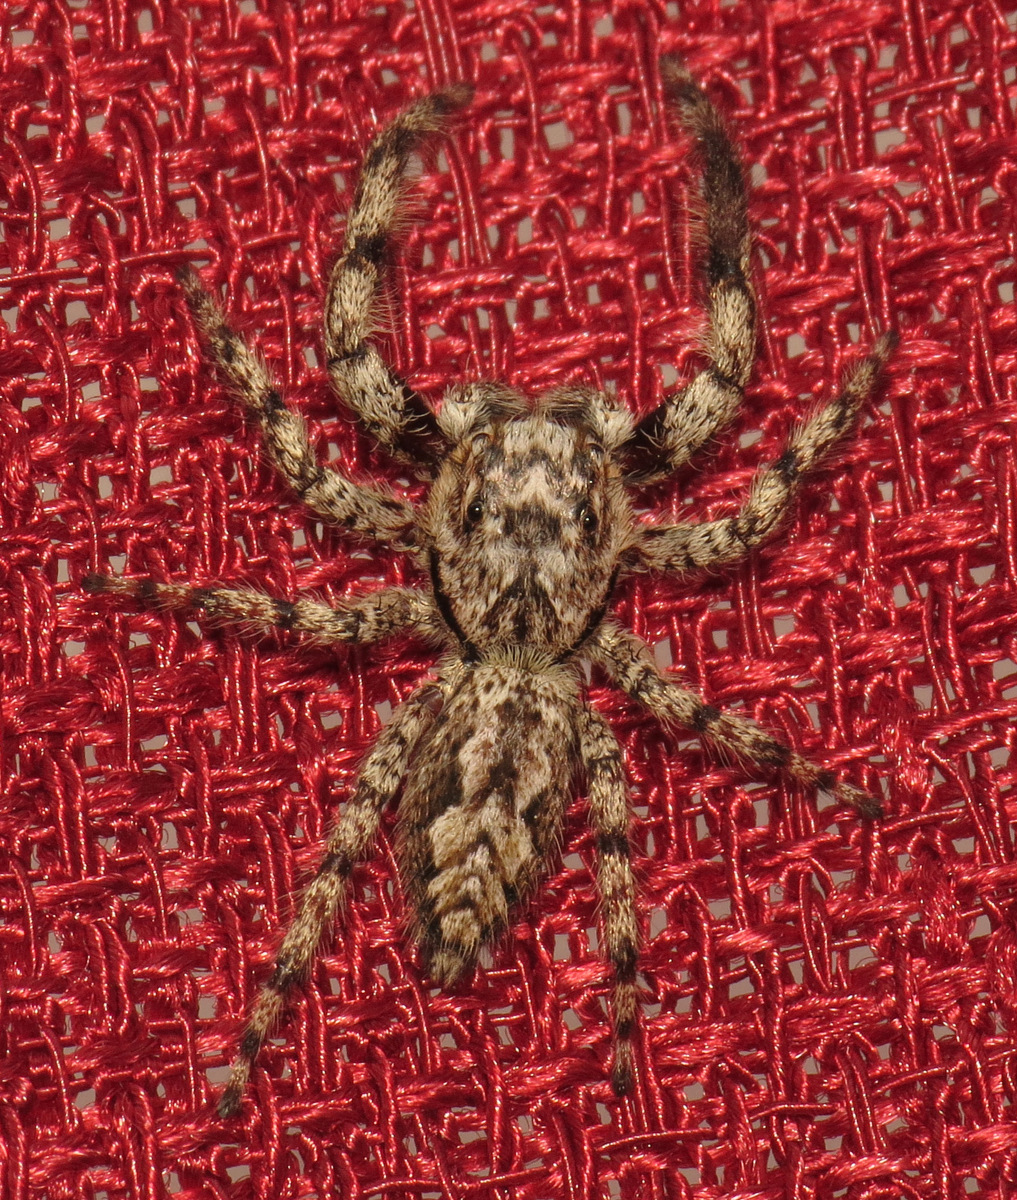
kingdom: Animalia
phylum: Arthropoda
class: Arachnida
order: Araneae
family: Salticidae
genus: Platycryptus
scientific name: Platycryptus undatus
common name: Tan jumping spider
